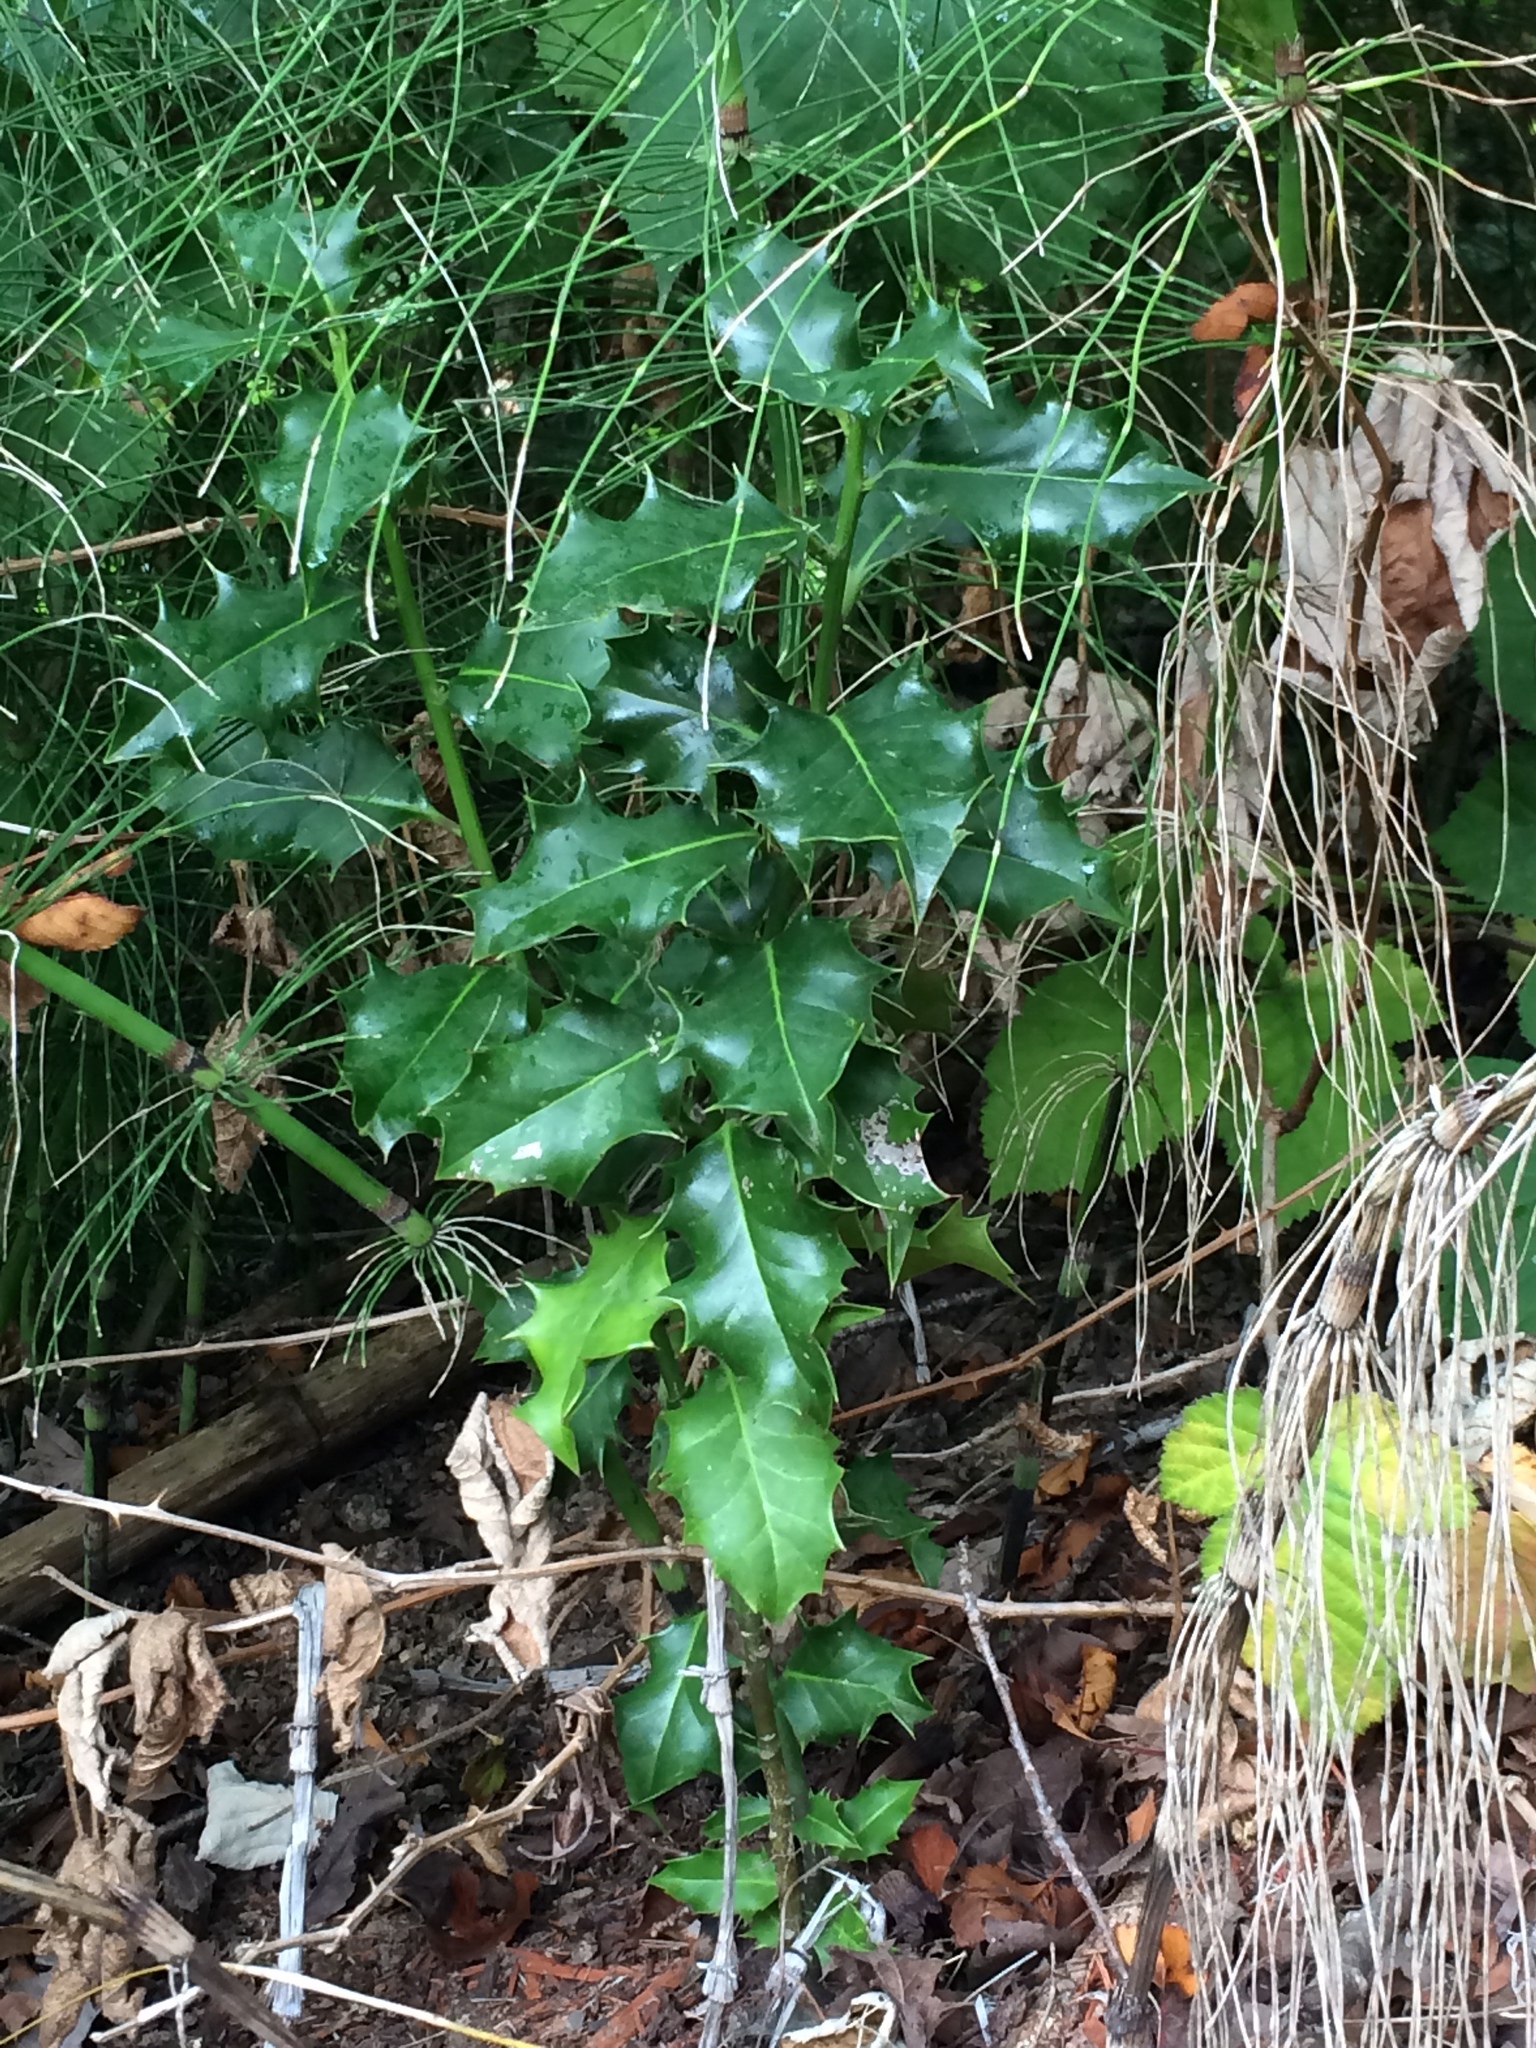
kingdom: Plantae
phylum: Tracheophyta
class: Magnoliopsida
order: Aquifoliales
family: Aquifoliaceae
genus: Ilex
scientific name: Ilex aquifolium
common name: English holly
